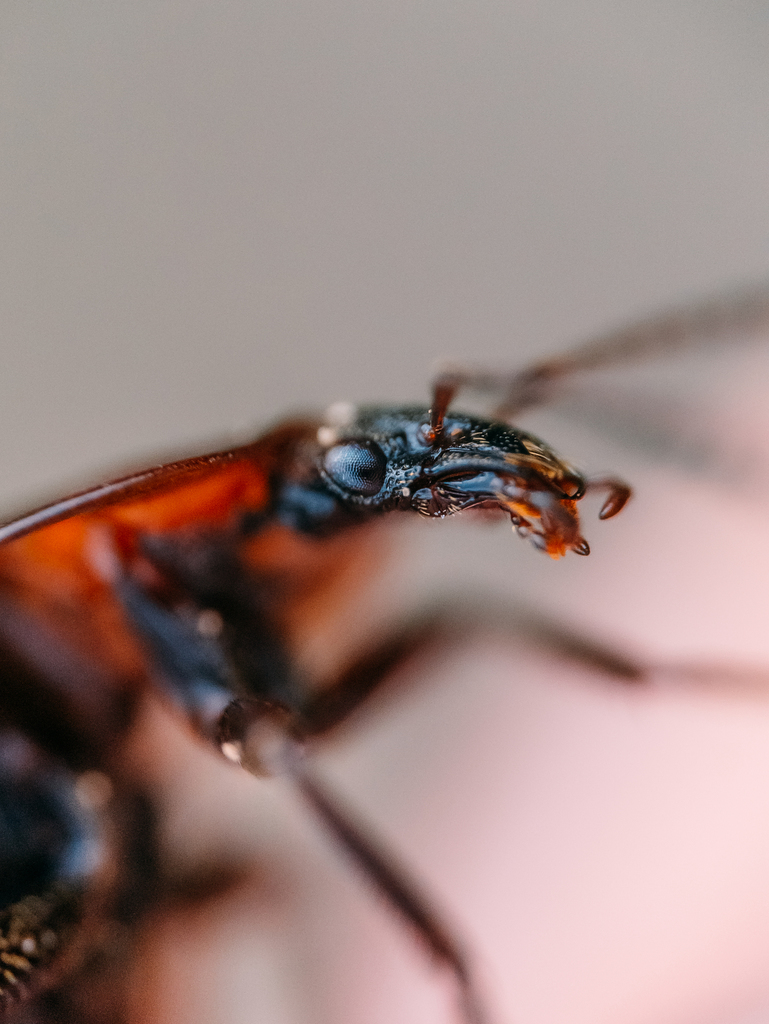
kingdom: Animalia
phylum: Arthropoda
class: Insecta
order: Coleoptera
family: Staphylinidae
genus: Silpha
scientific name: Silpha atrata
